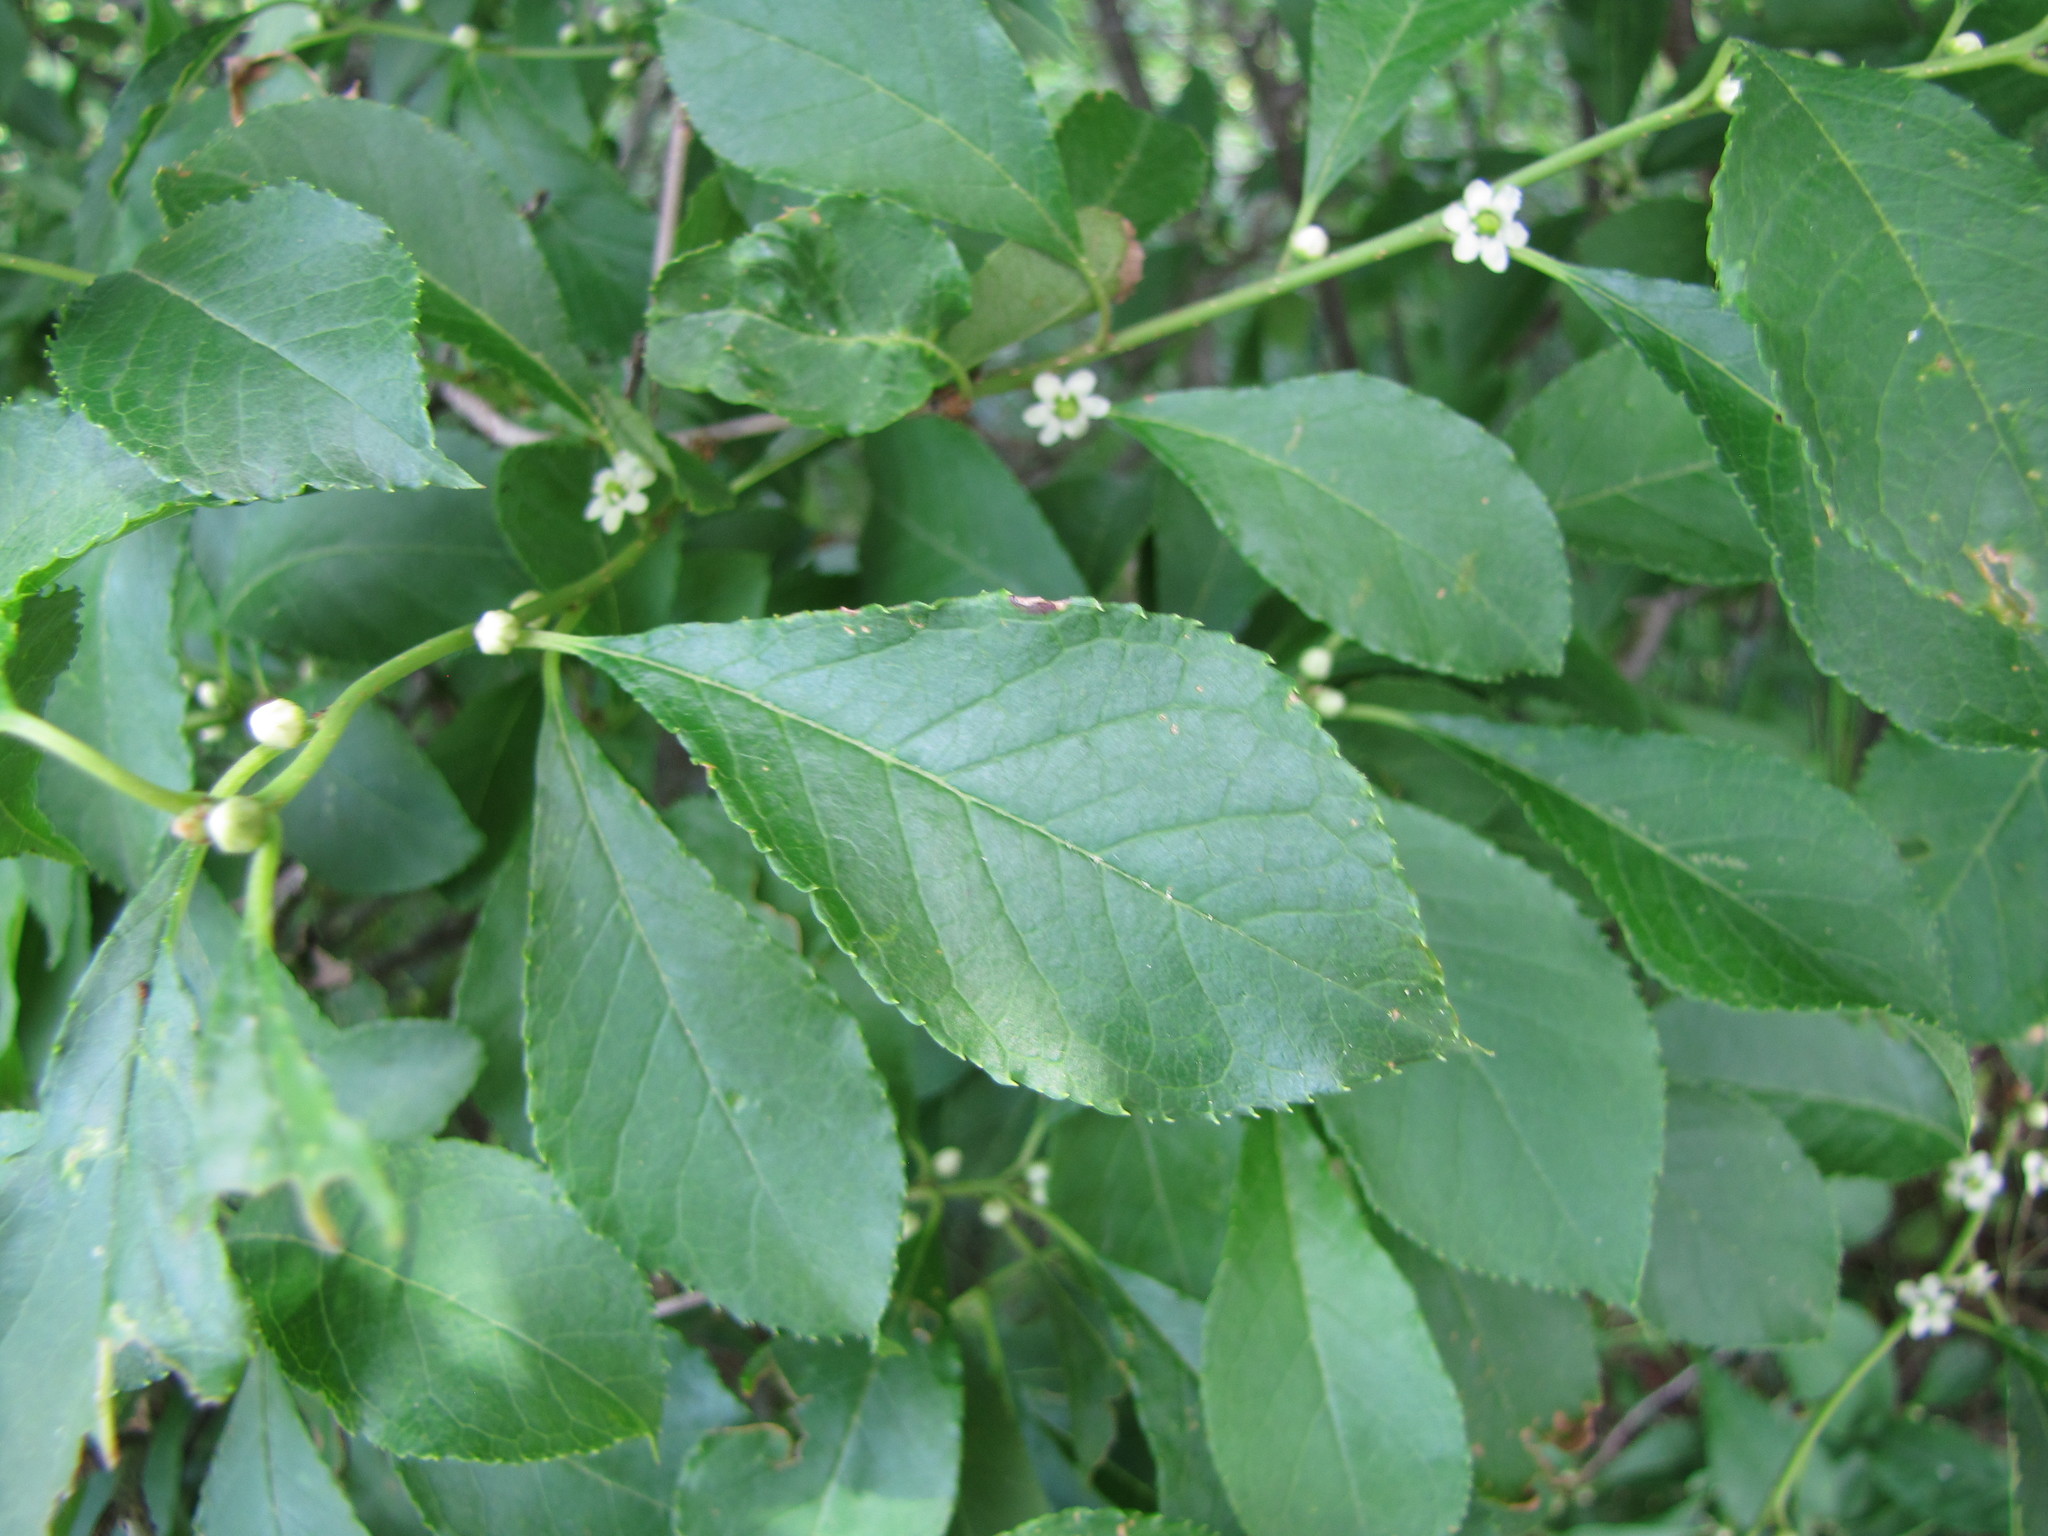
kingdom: Plantae
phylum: Tracheophyta
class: Magnoliopsida
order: Aquifoliales
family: Aquifoliaceae
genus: Ilex
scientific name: Ilex verticillata
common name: Virginia winterberry
